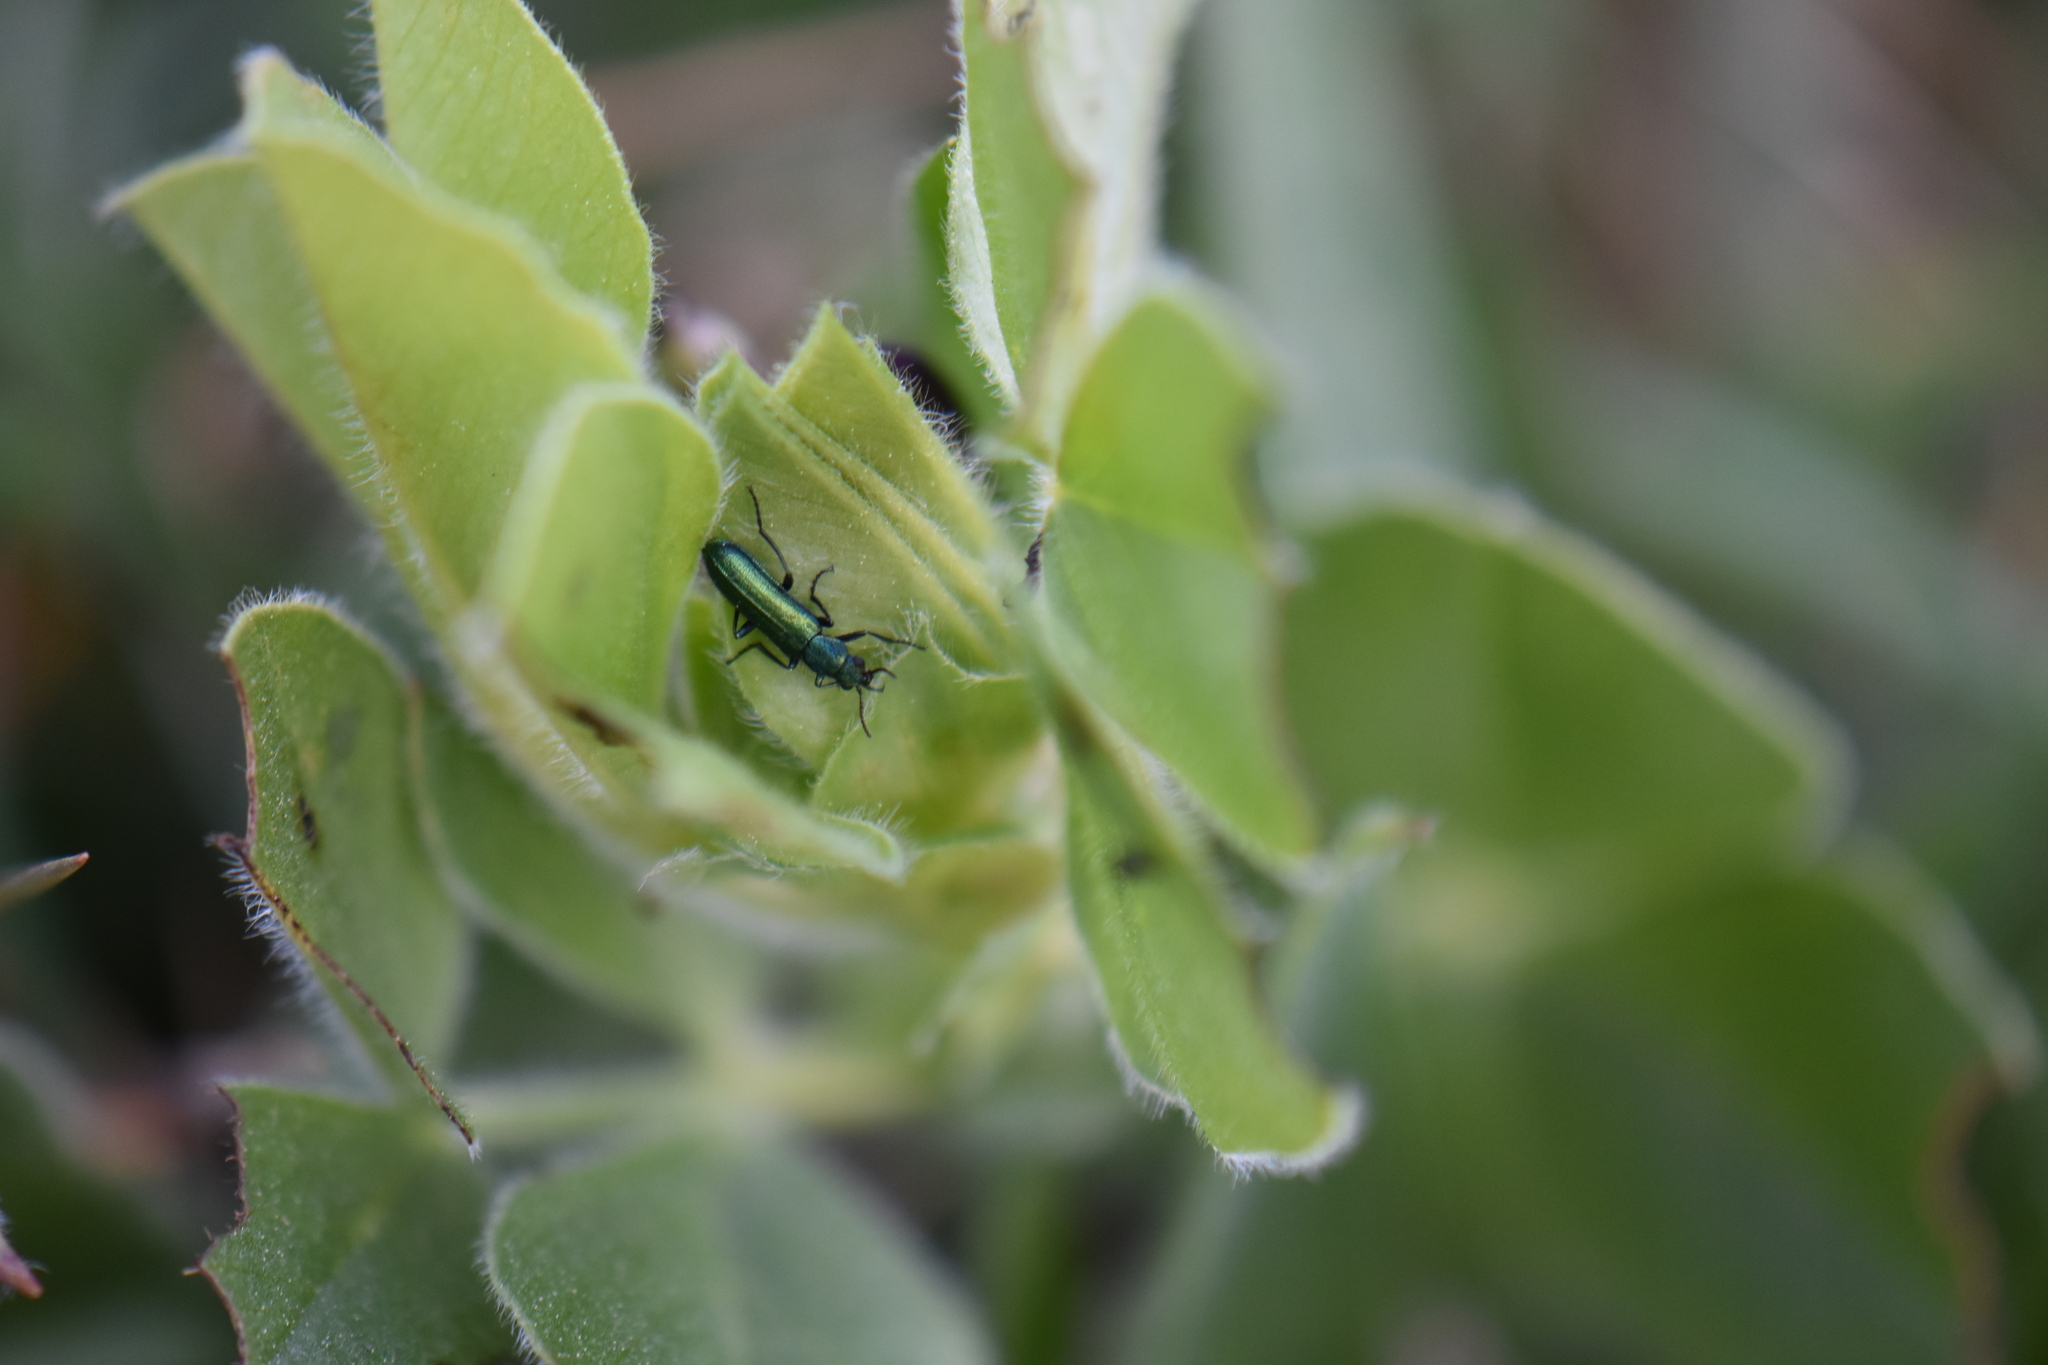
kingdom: Animalia
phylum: Arthropoda
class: Insecta
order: Coleoptera
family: Dasytidae
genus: Psilothrix
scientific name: Psilothrix viridicoerulea
